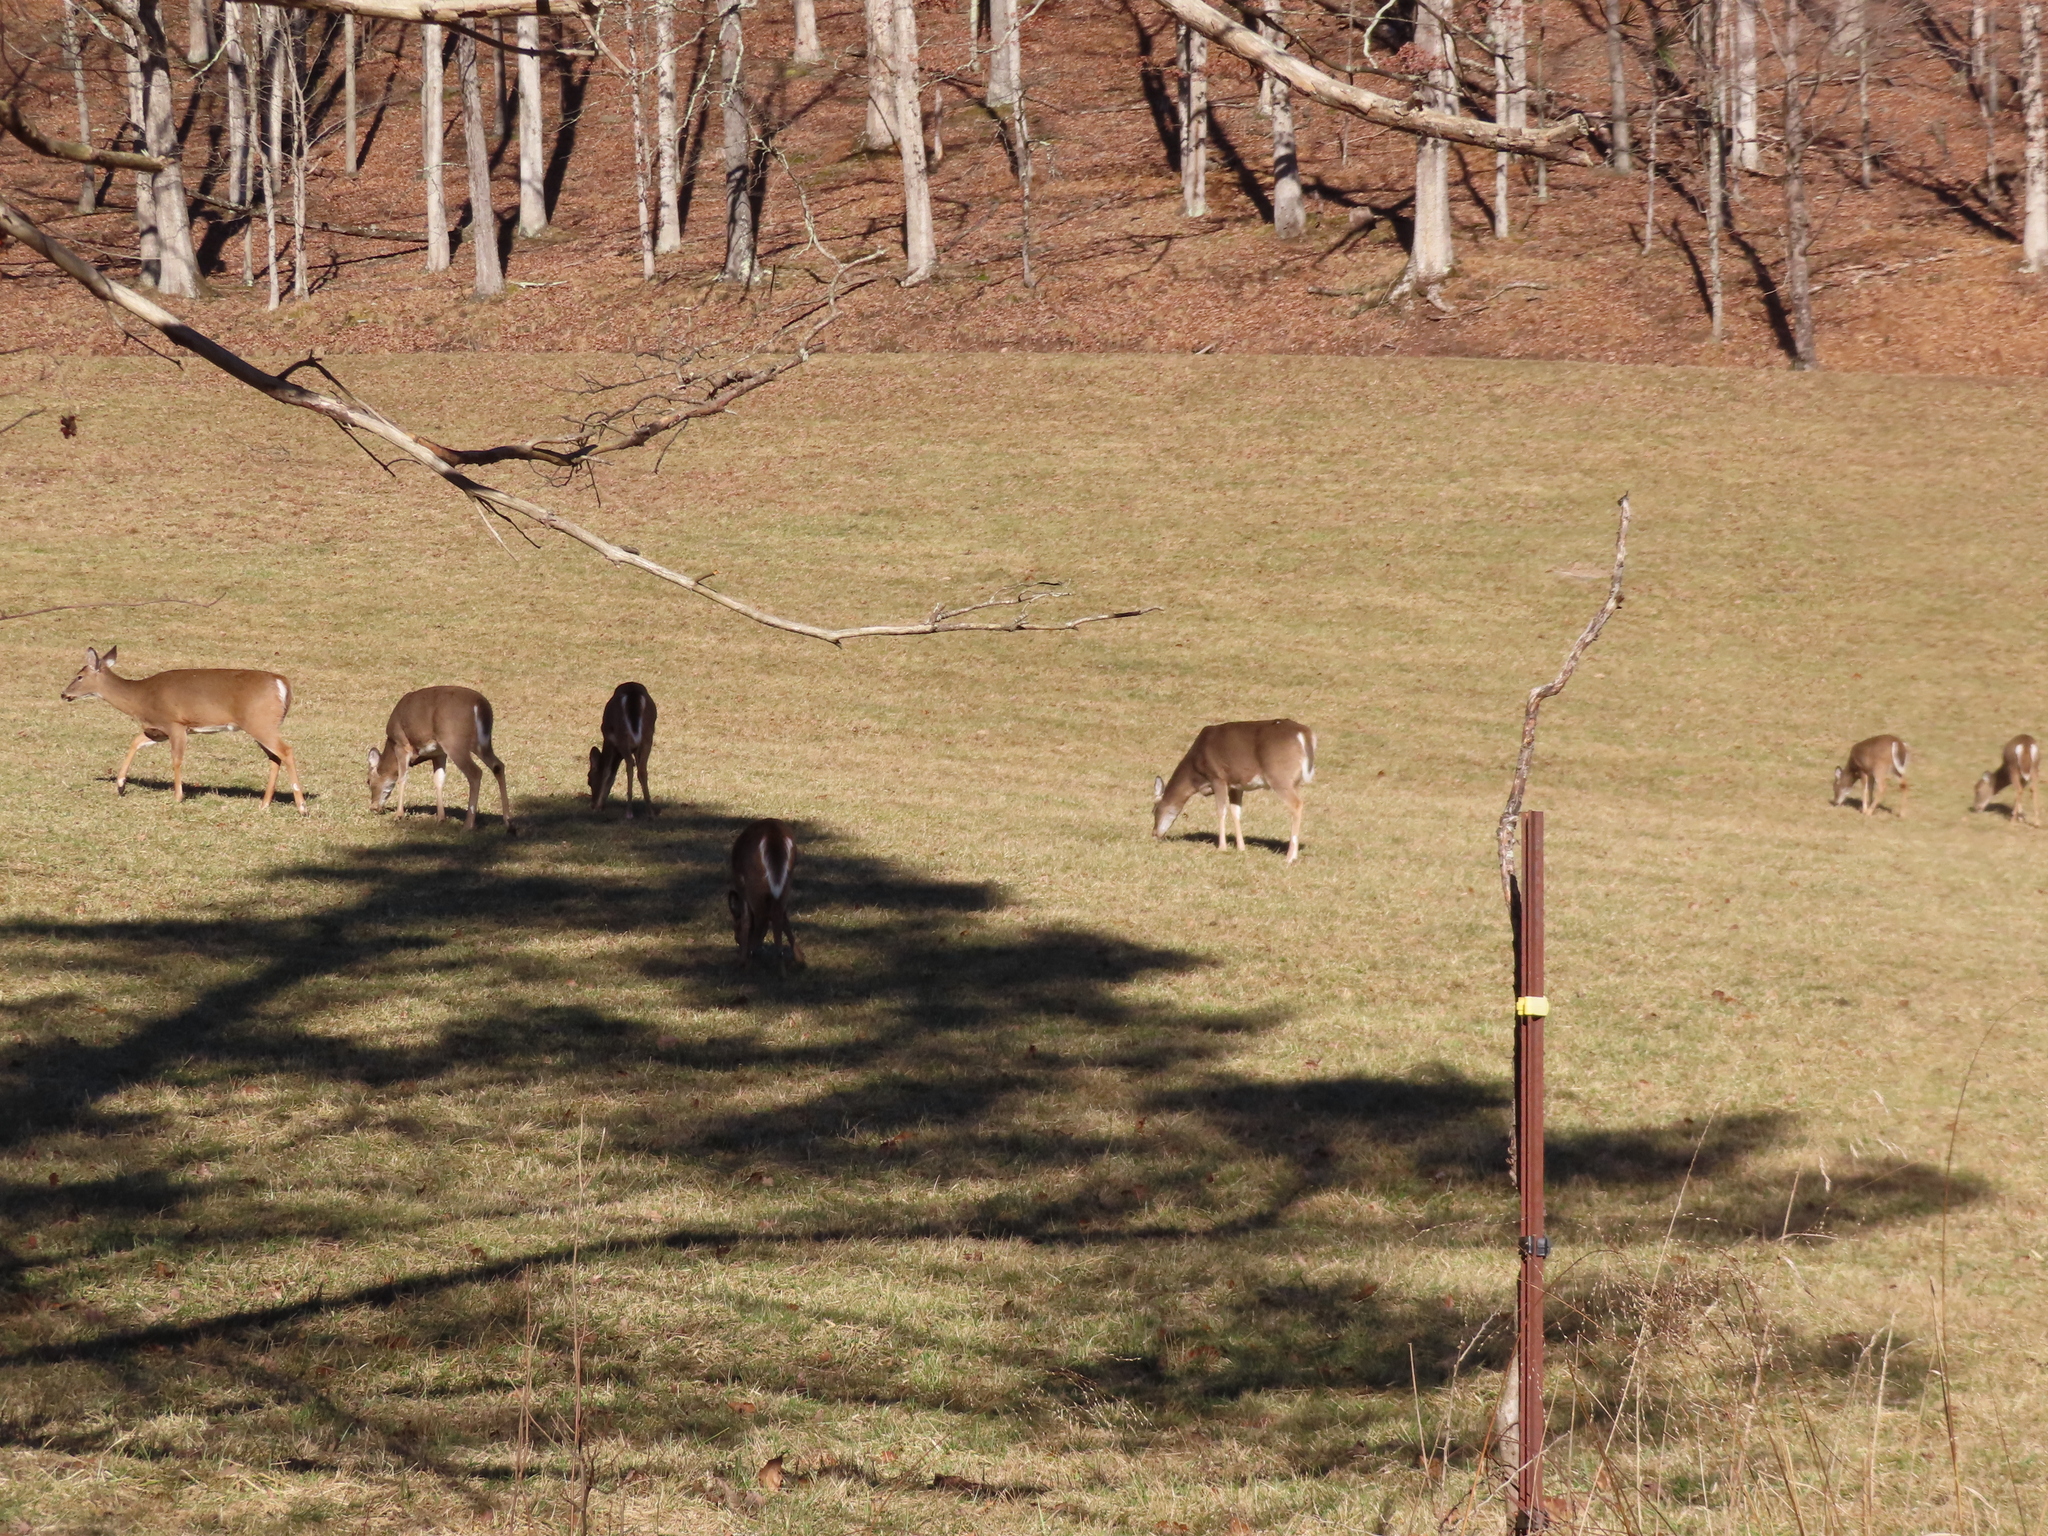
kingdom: Animalia
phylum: Chordata
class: Mammalia
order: Artiodactyla
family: Cervidae
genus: Odocoileus
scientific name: Odocoileus virginianus
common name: White-tailed deer
